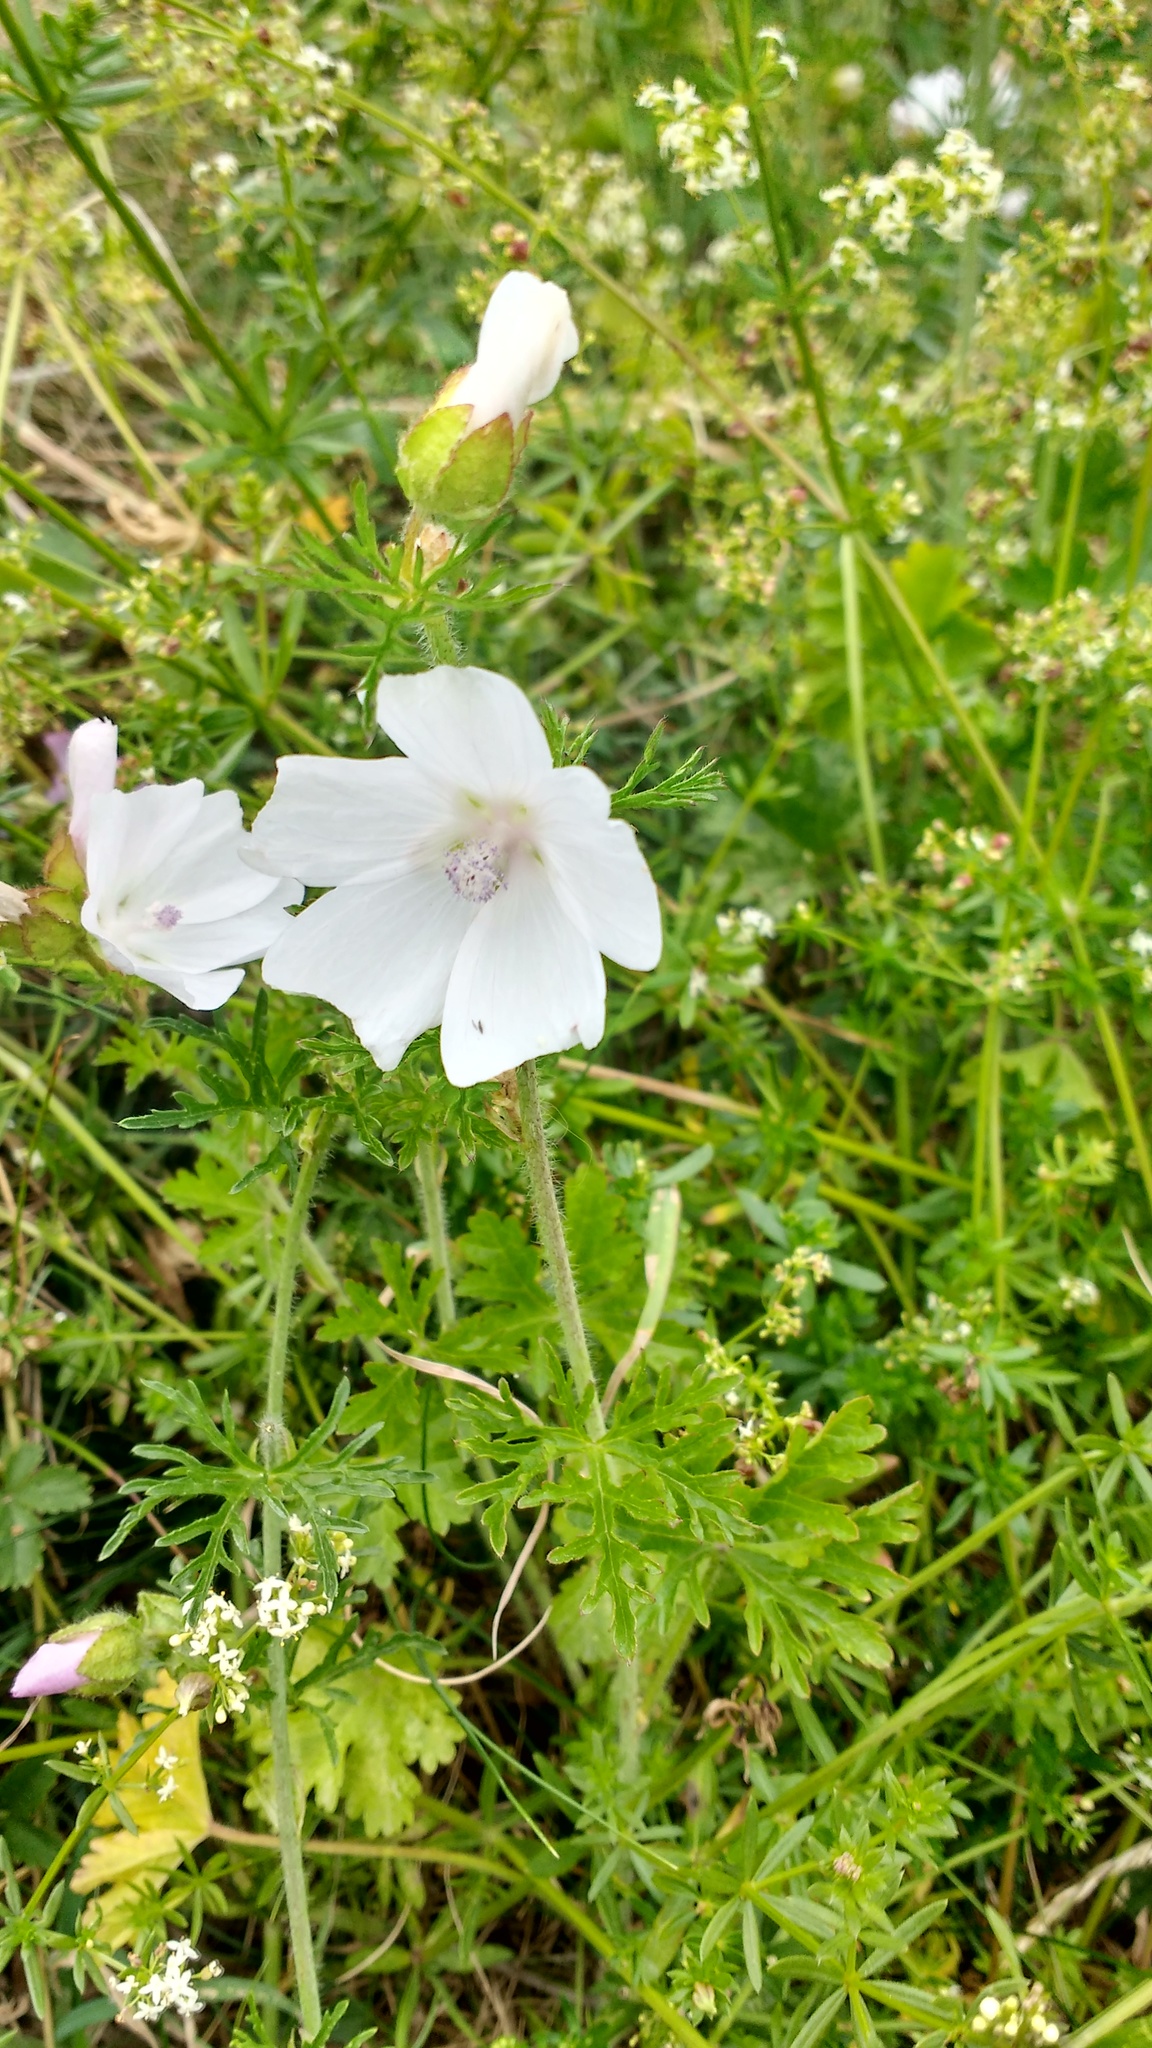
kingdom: Plantae
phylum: Tracheophyta
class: Magnoliopsida
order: Malvales
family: Malvaceae
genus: Malva
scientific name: Malva moschata
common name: Musk mallow
